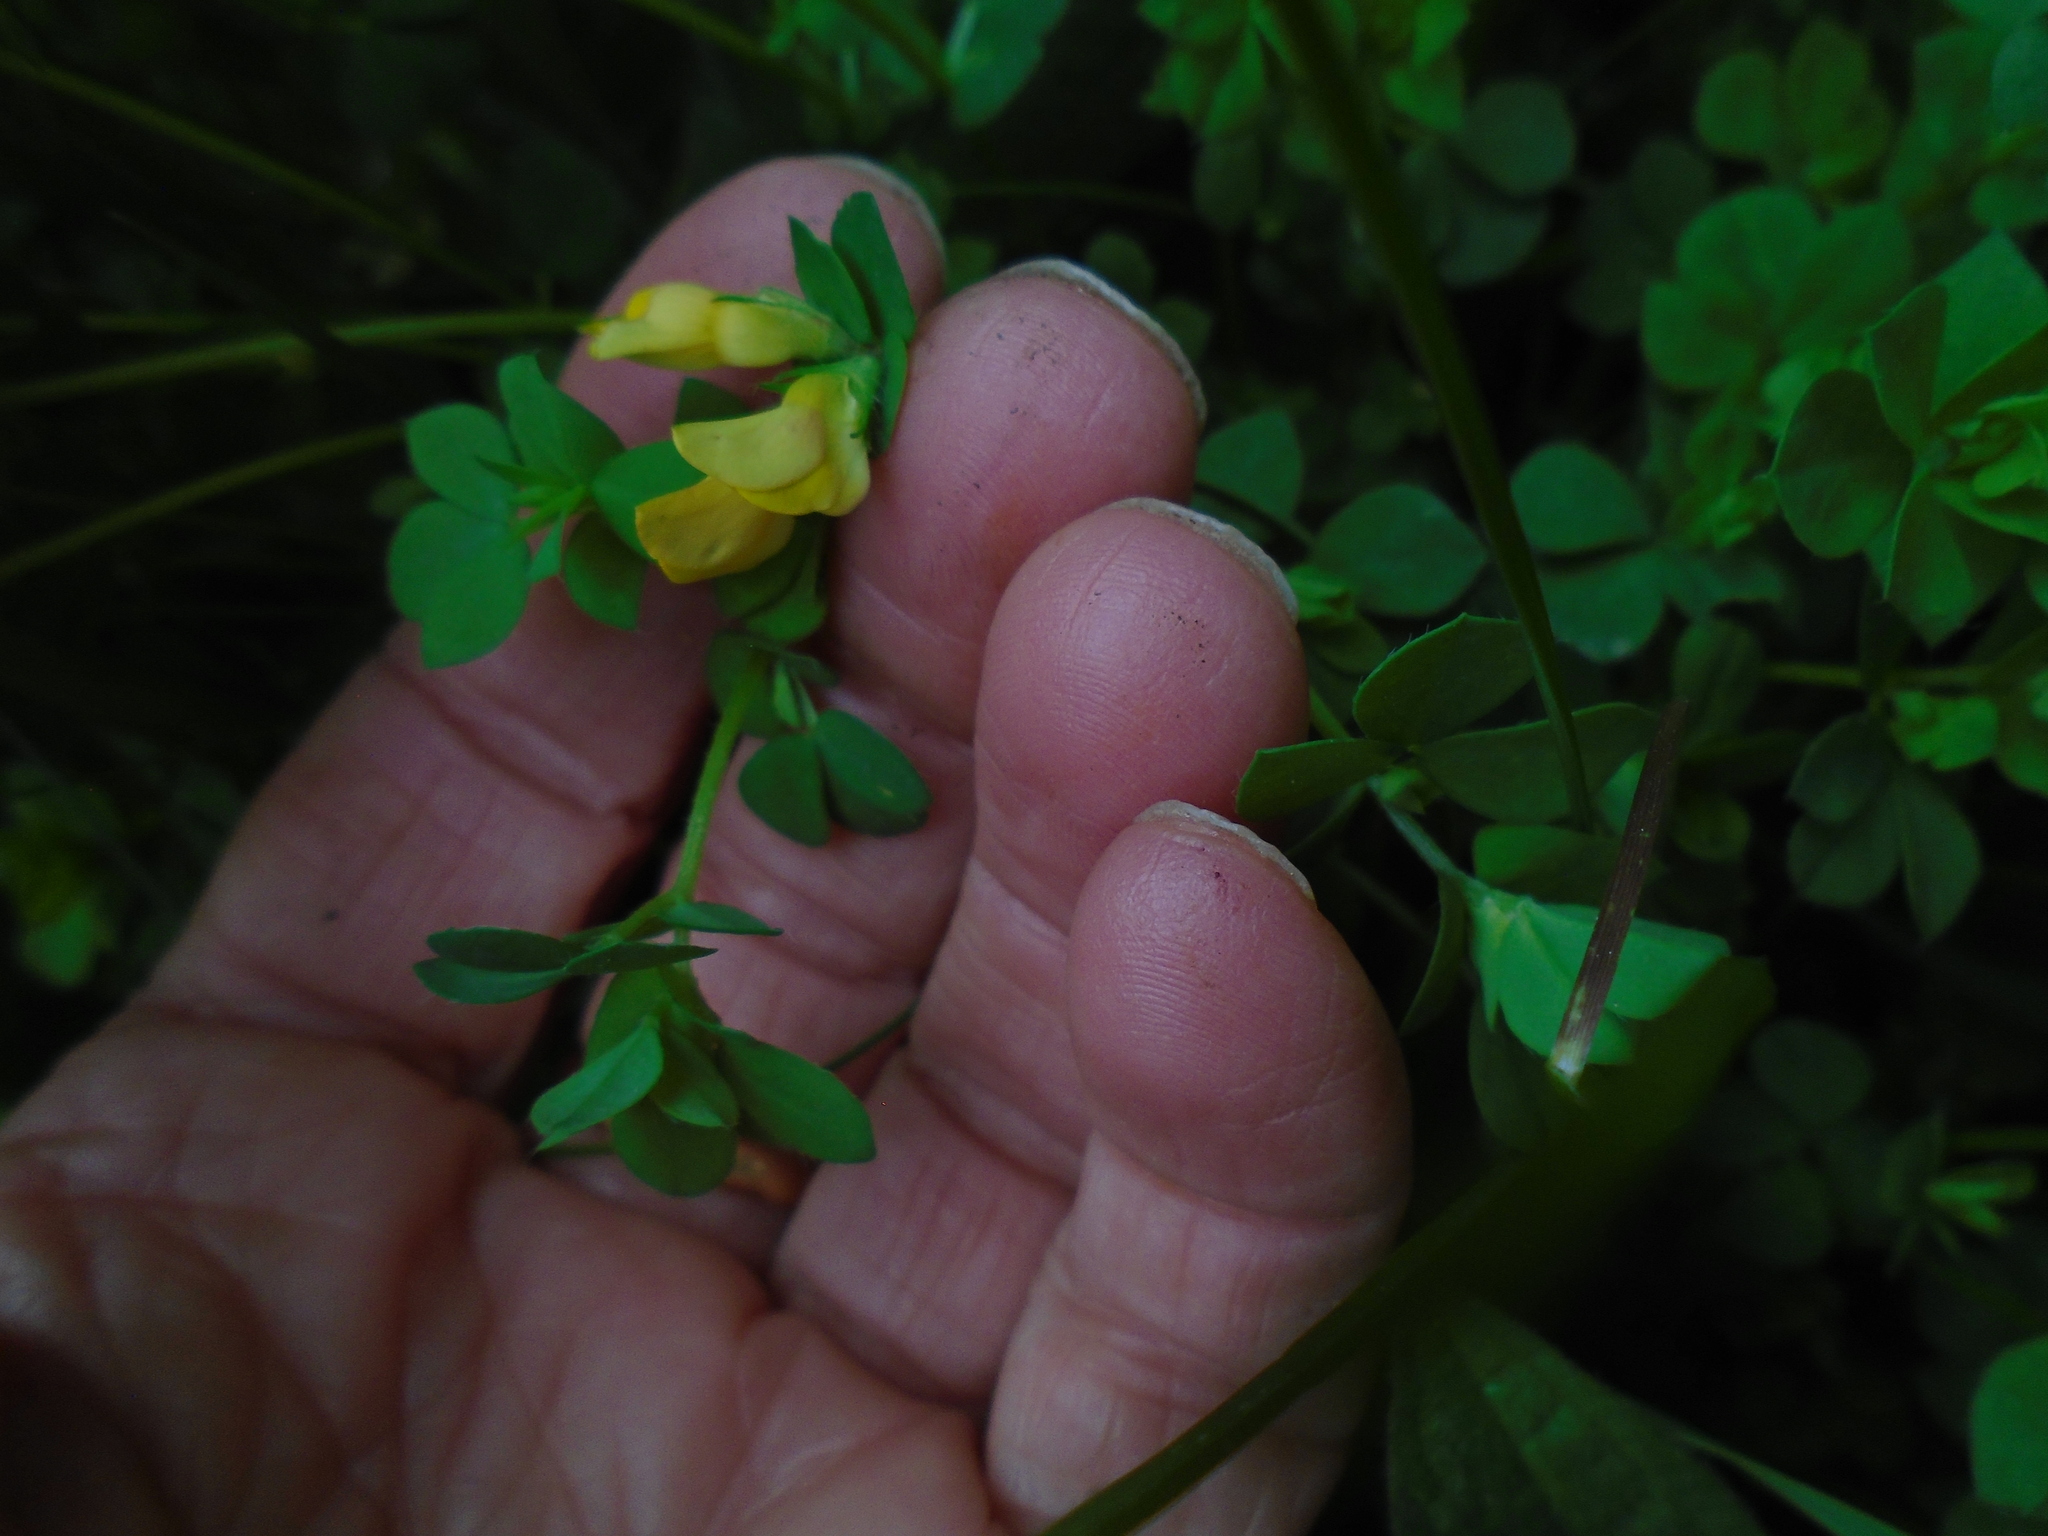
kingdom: Plantae
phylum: Tracheophyta
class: Magnoliopsida
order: Fabales
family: Fabaceae
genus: Lotus
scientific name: Lotus corniculatus
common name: Common bird's-foot-trefoil
